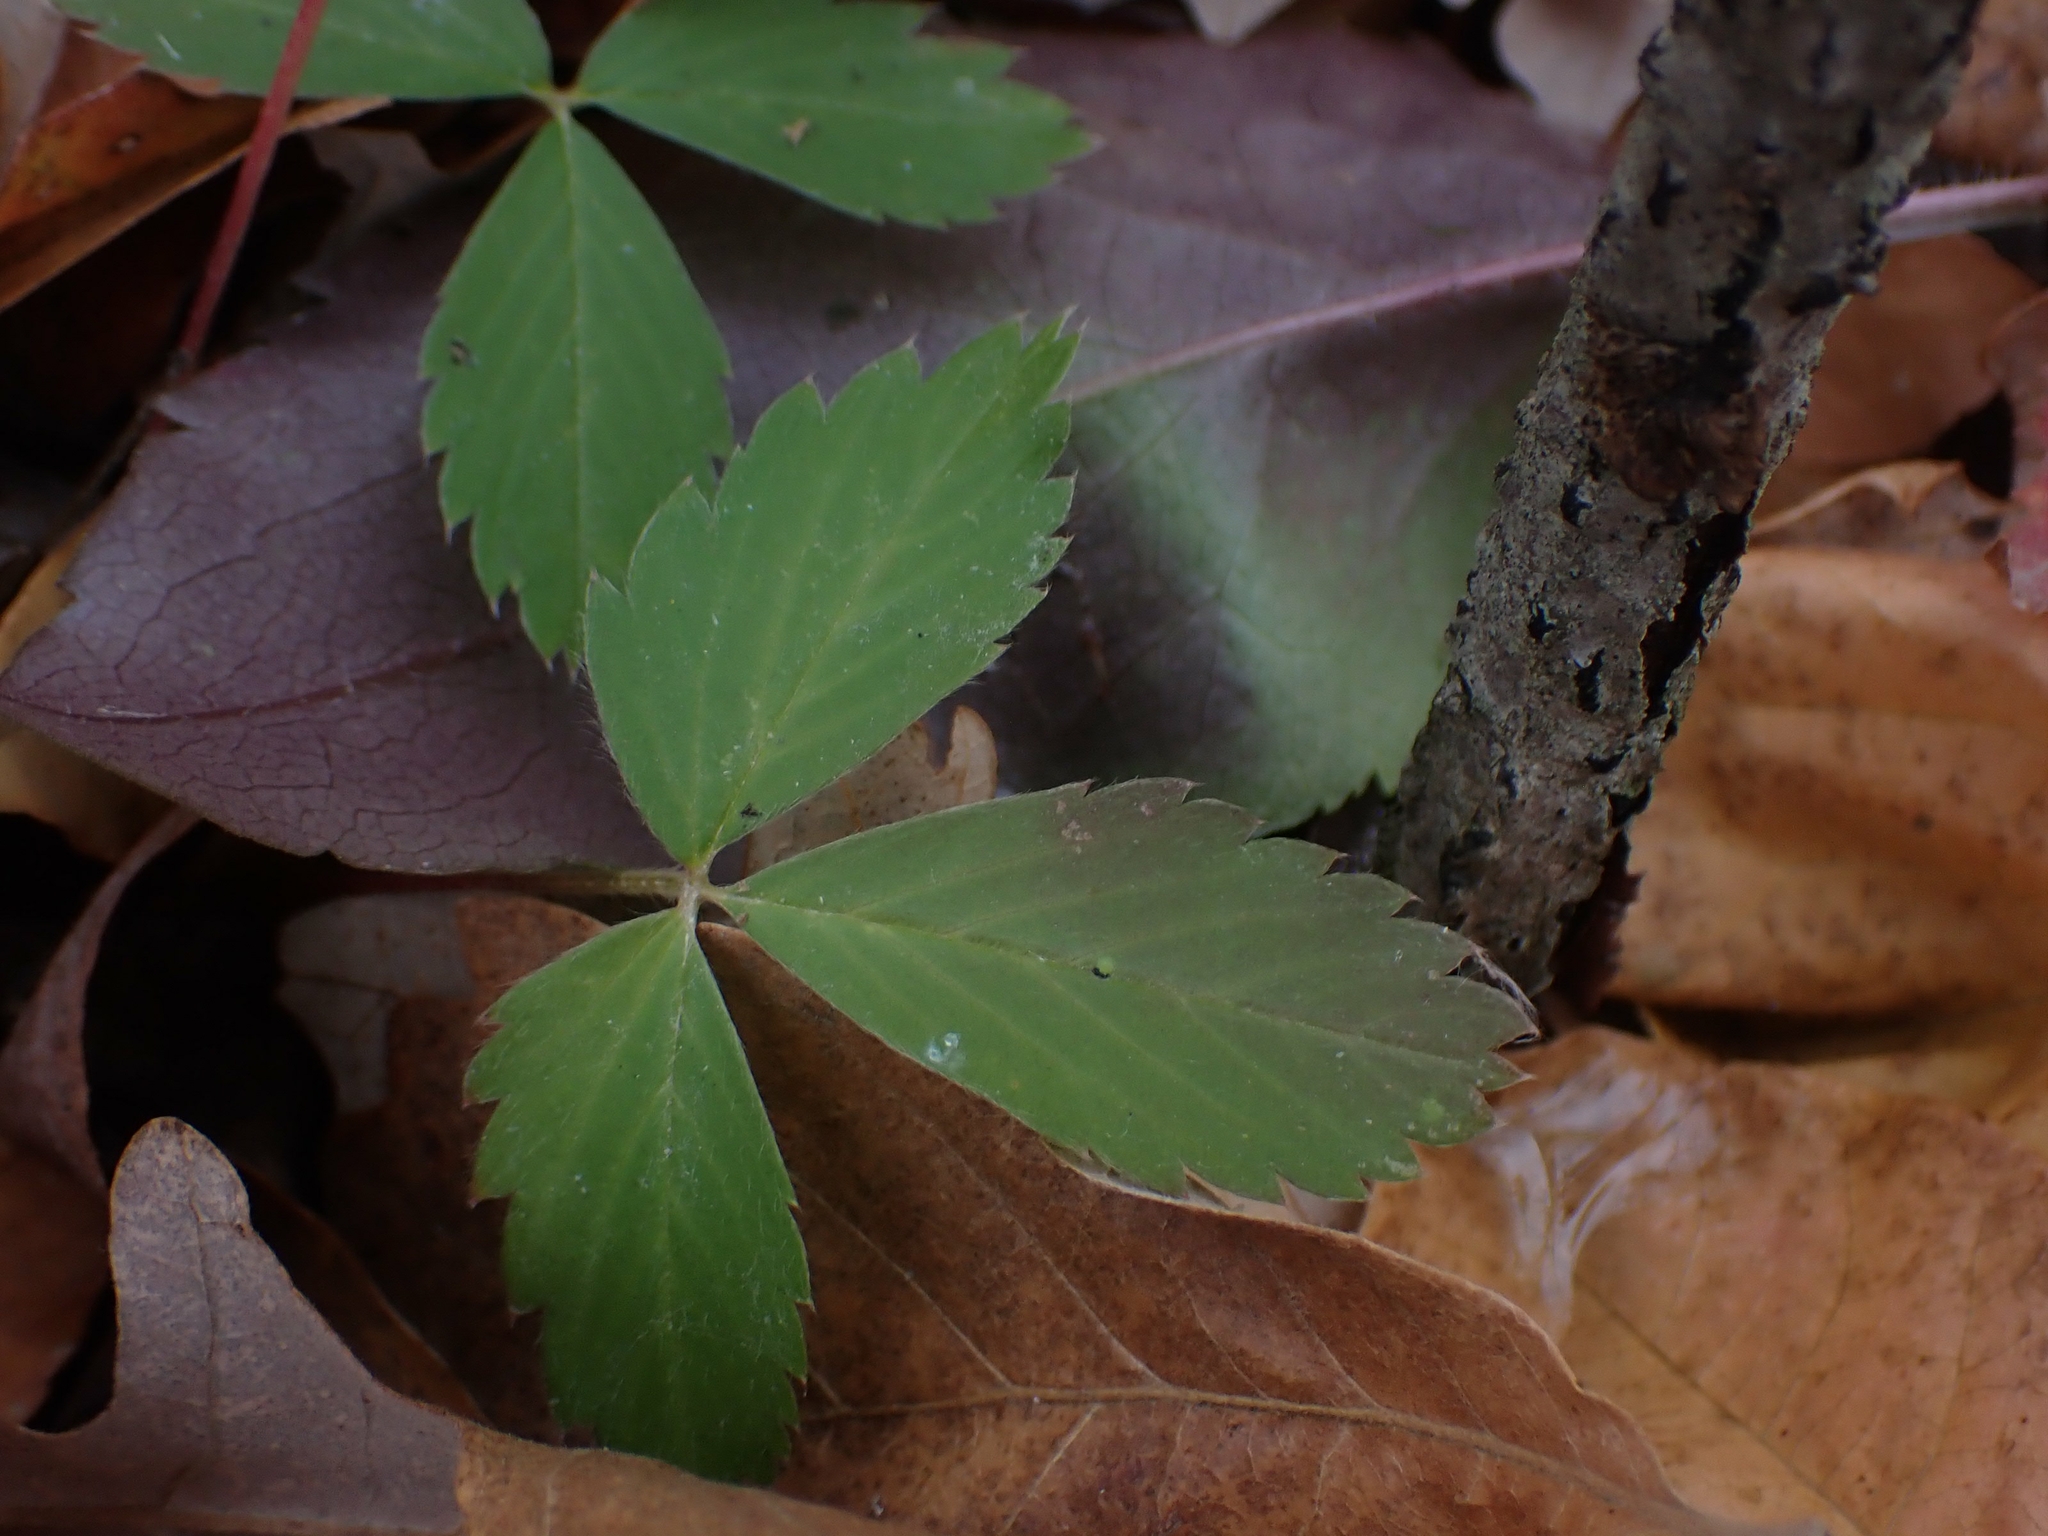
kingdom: Plantae
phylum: Tracheophyta
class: Magnoliopsida
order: Rosales
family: Rosaceae
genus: Fragaria
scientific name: Fragaria virginiana
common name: Thickleaved wild strawberry
